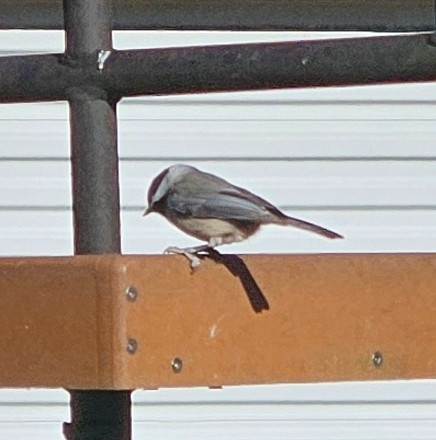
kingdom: Animalia
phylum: Chordata
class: Aves
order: Passeriformes
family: Paridae
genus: Poecile
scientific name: Poecile carolinensis
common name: Carolina chickadee
